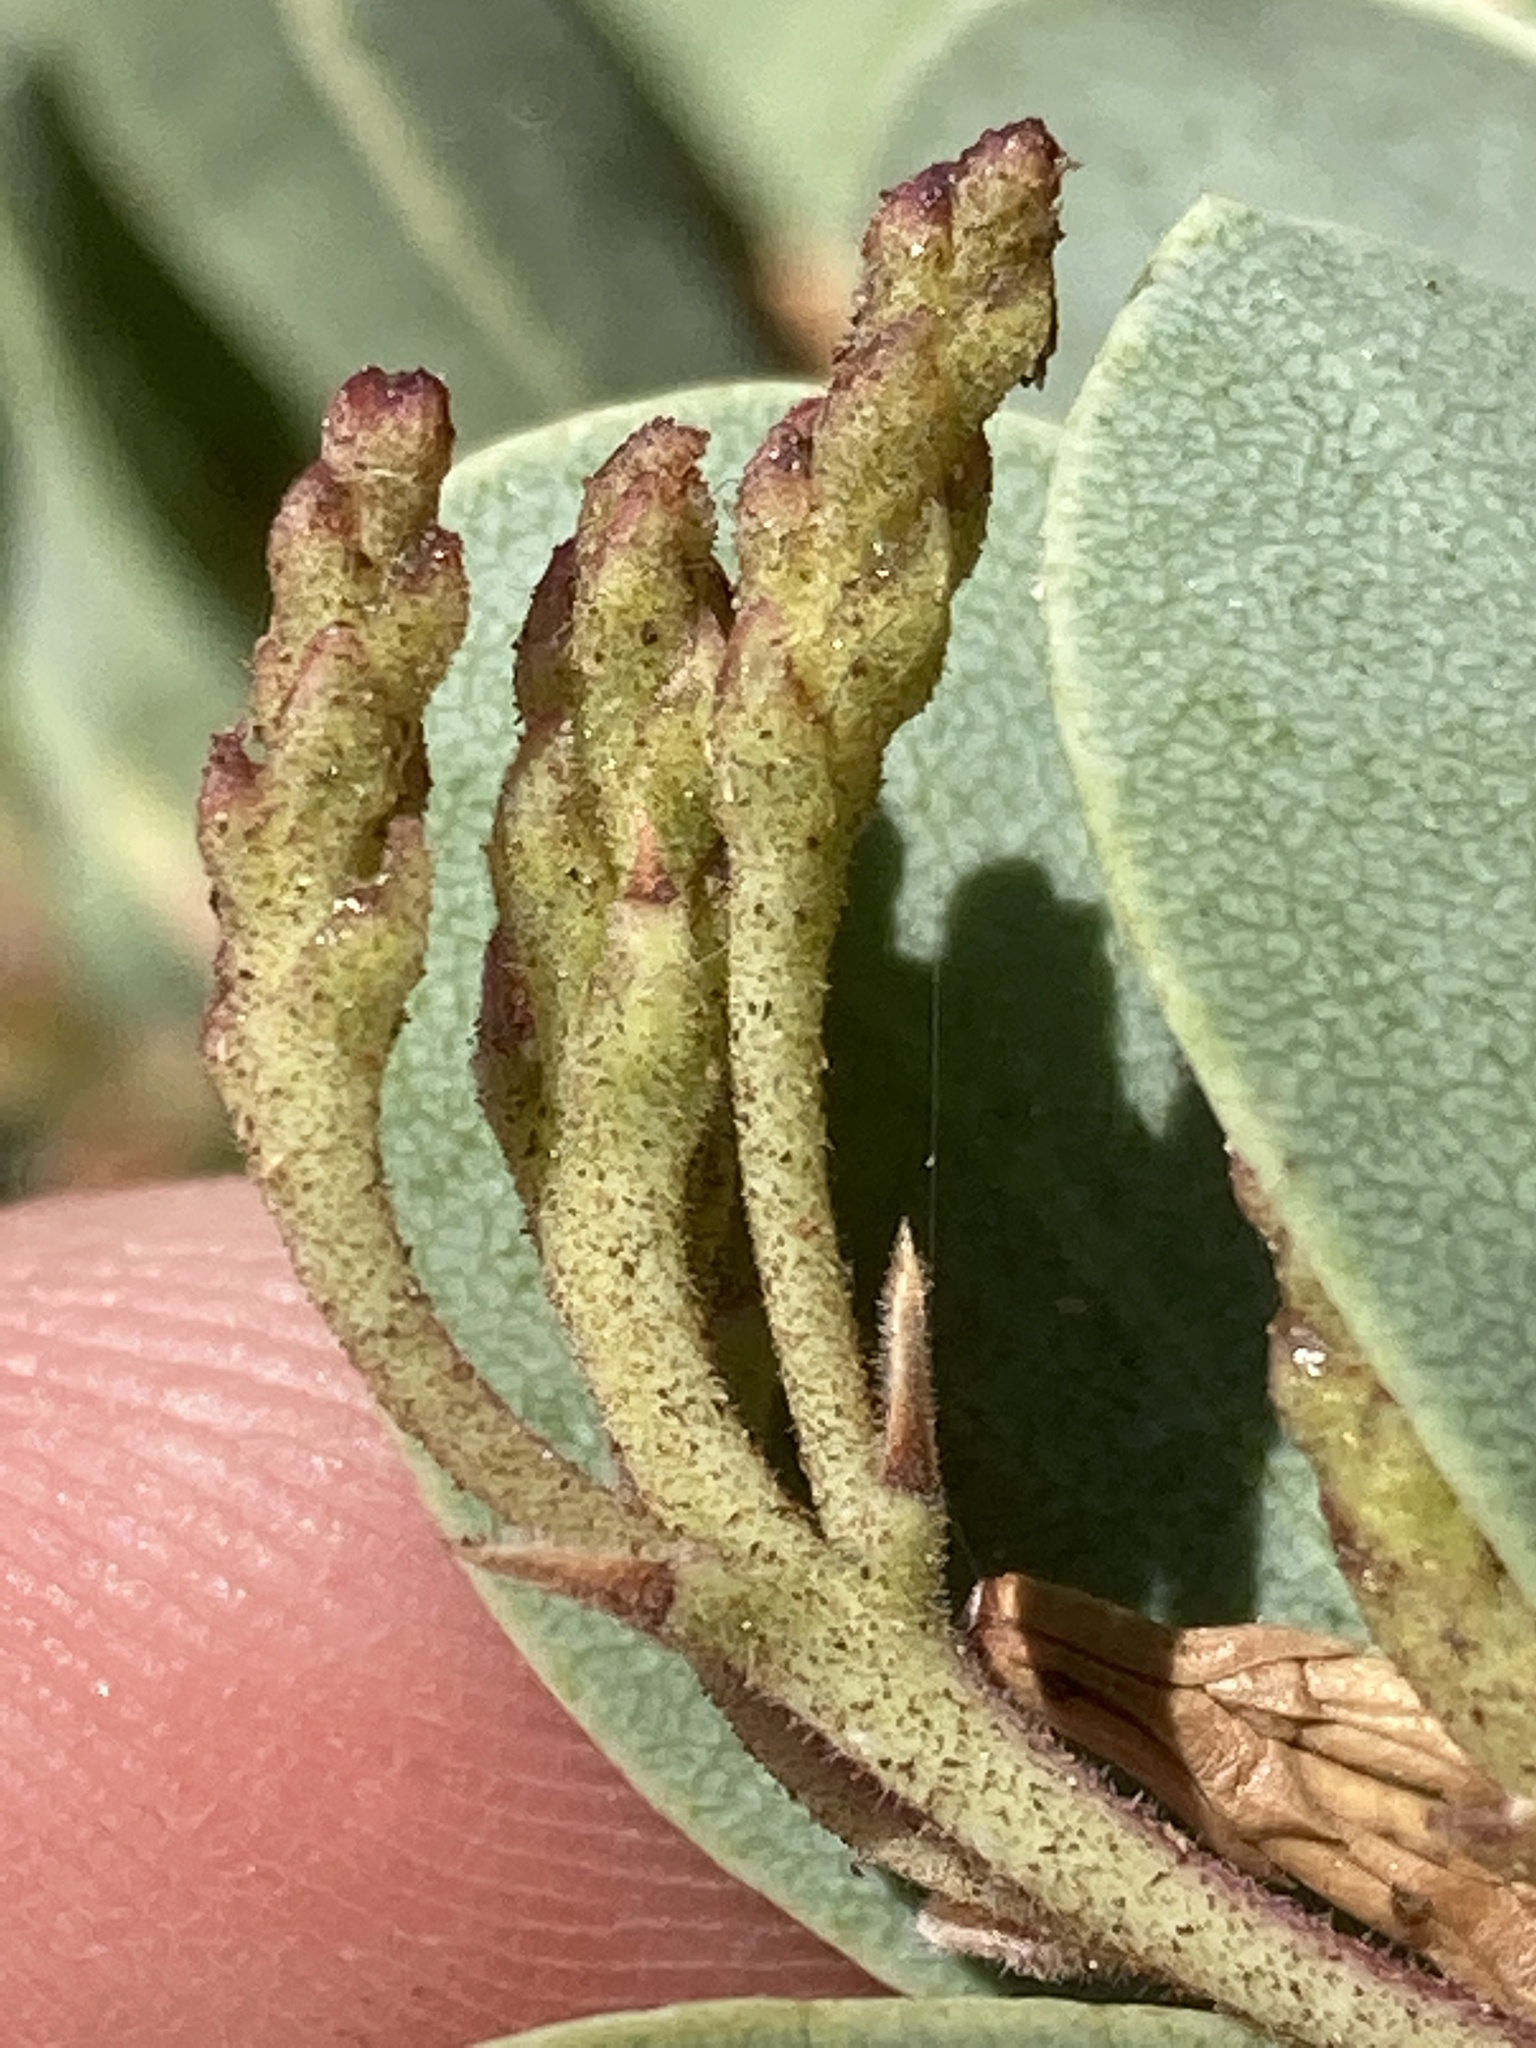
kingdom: Plantae
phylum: Tracheophyta
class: Magnoliopsida
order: Ericales
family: Ericaceae
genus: Arctostaphylos
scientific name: Arctostaphylos viscida
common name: White-leaf manzanita
